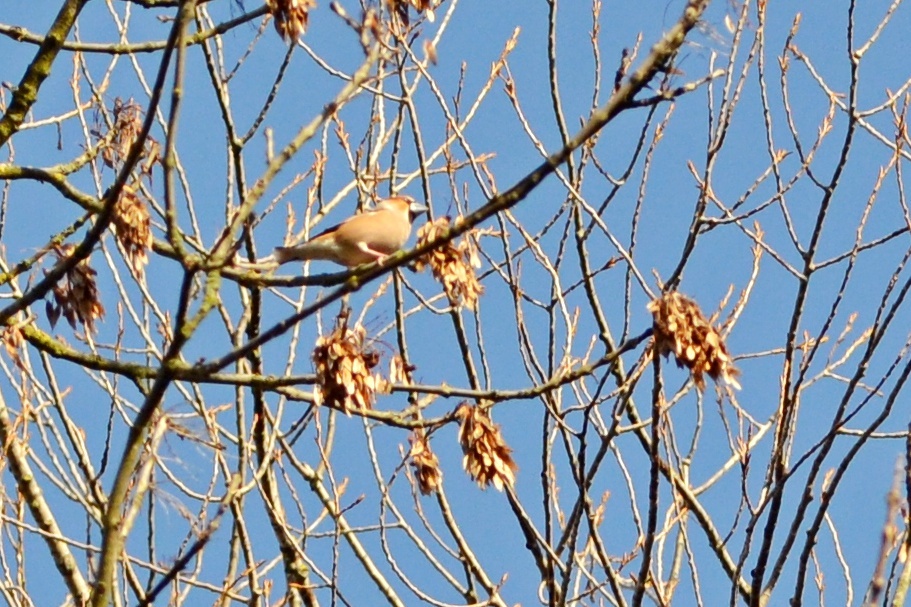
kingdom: Animalia
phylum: Chordata
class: Aves
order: Passeriformes
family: Fringillidae
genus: Coccothraustes
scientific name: Coccothraustes coccothraustes
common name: Hawfinch
